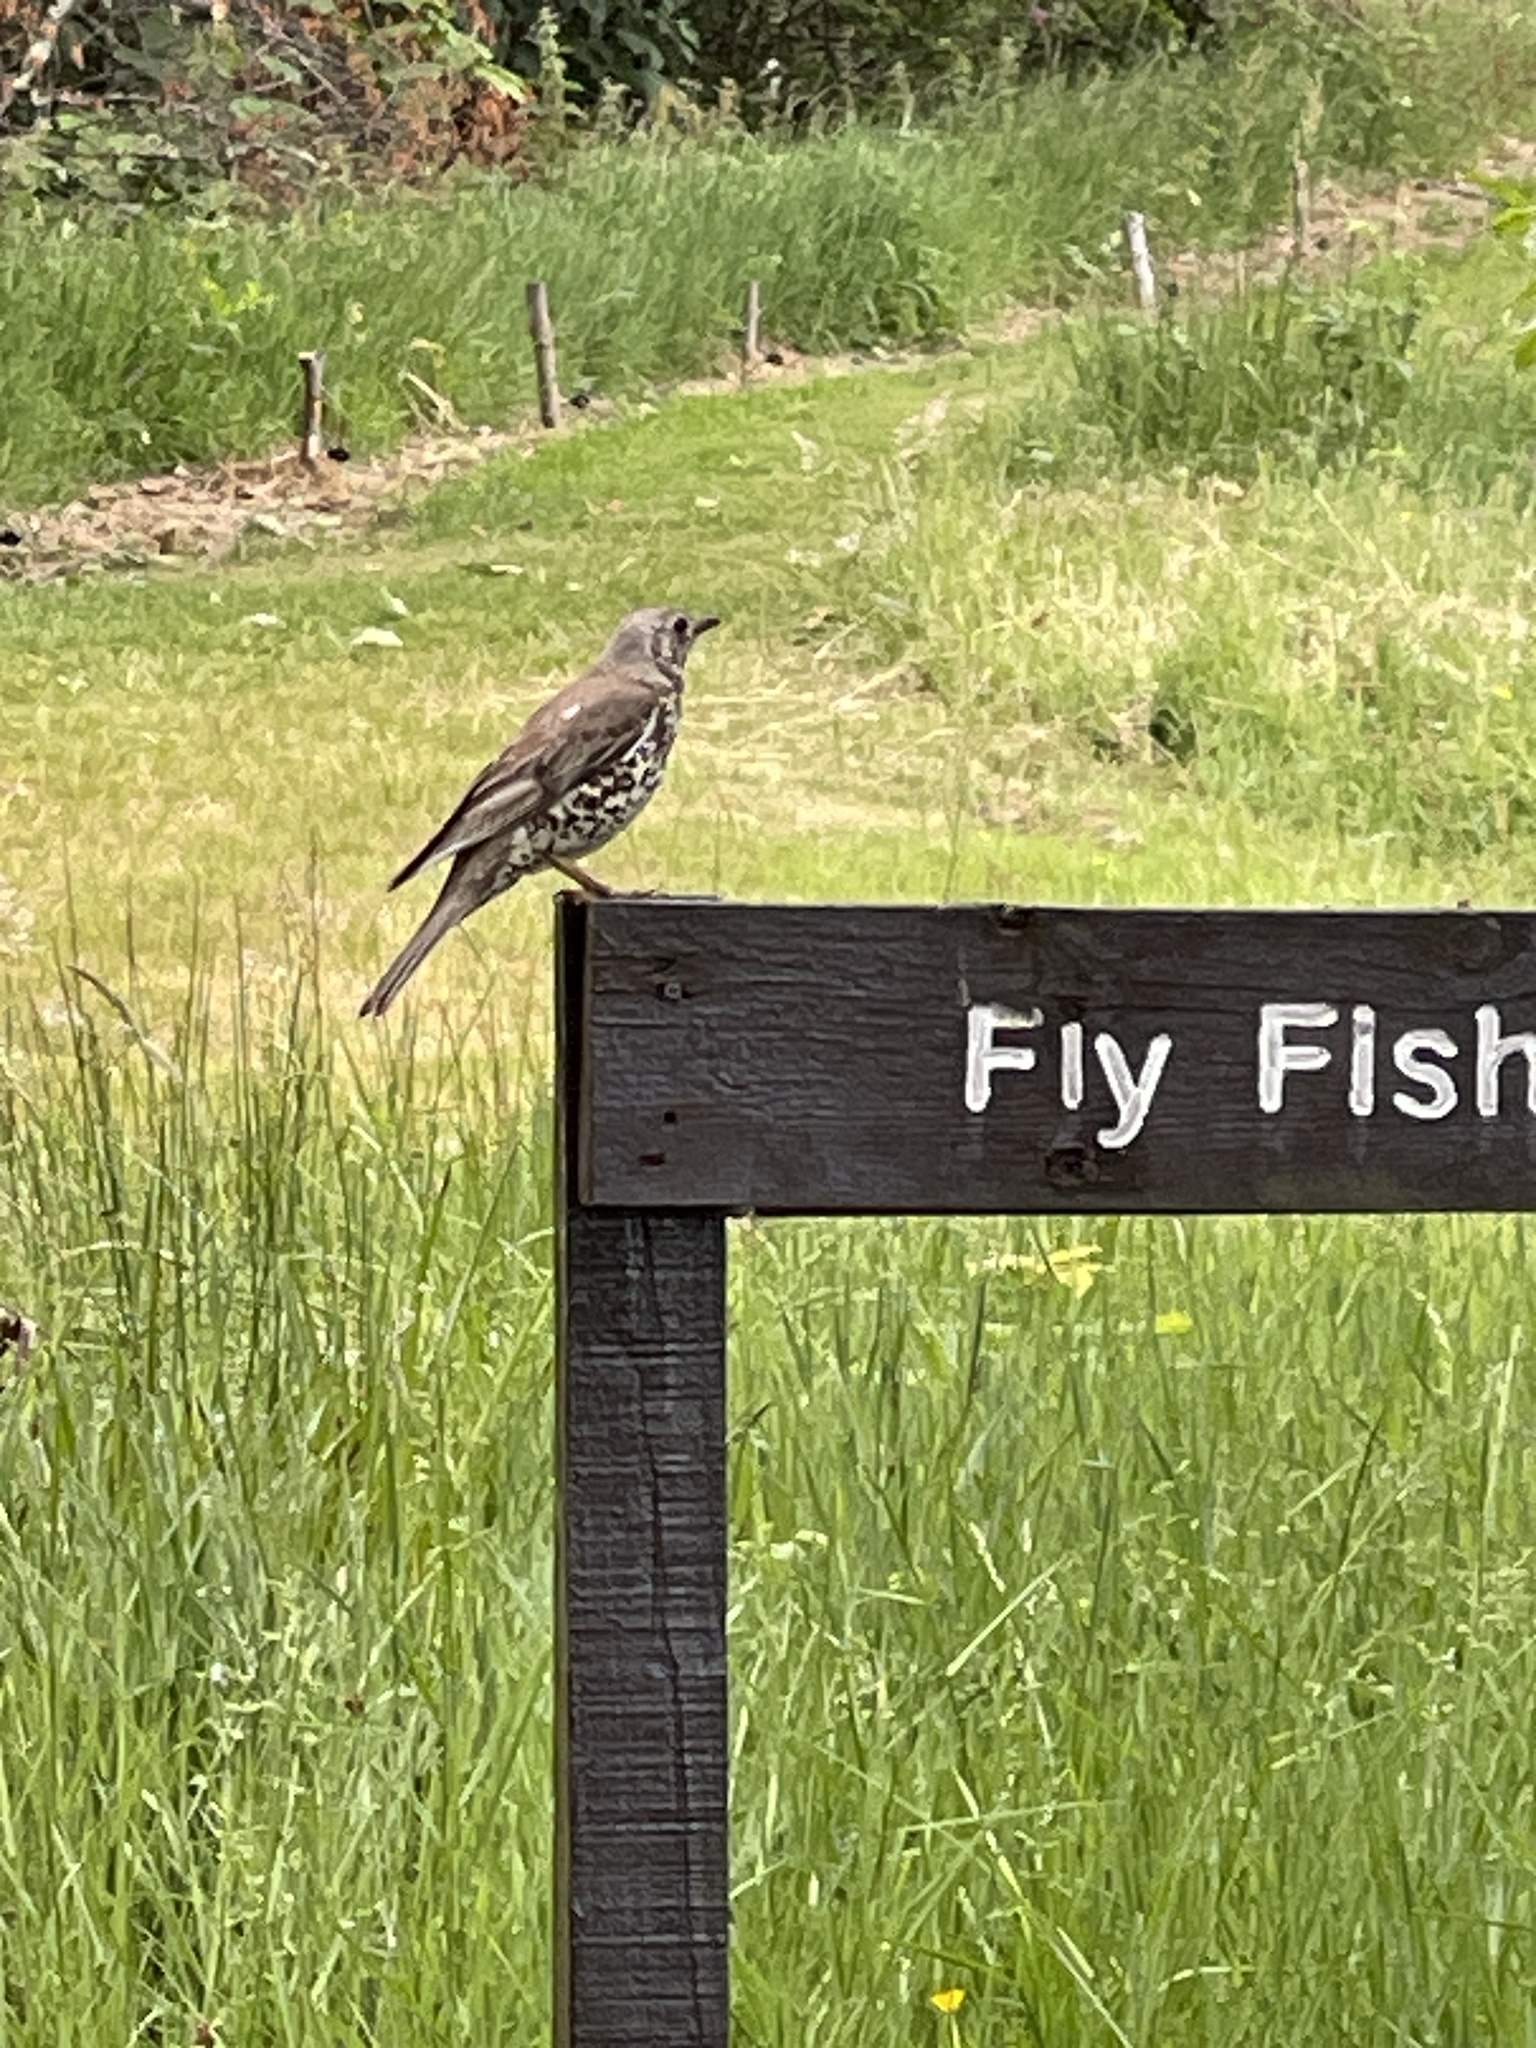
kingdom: Animalia
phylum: Chordata
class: Aves
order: Passeriformes
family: Turdidae
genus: Turdus
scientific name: Turdus viscivorus
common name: Mistle thrush
